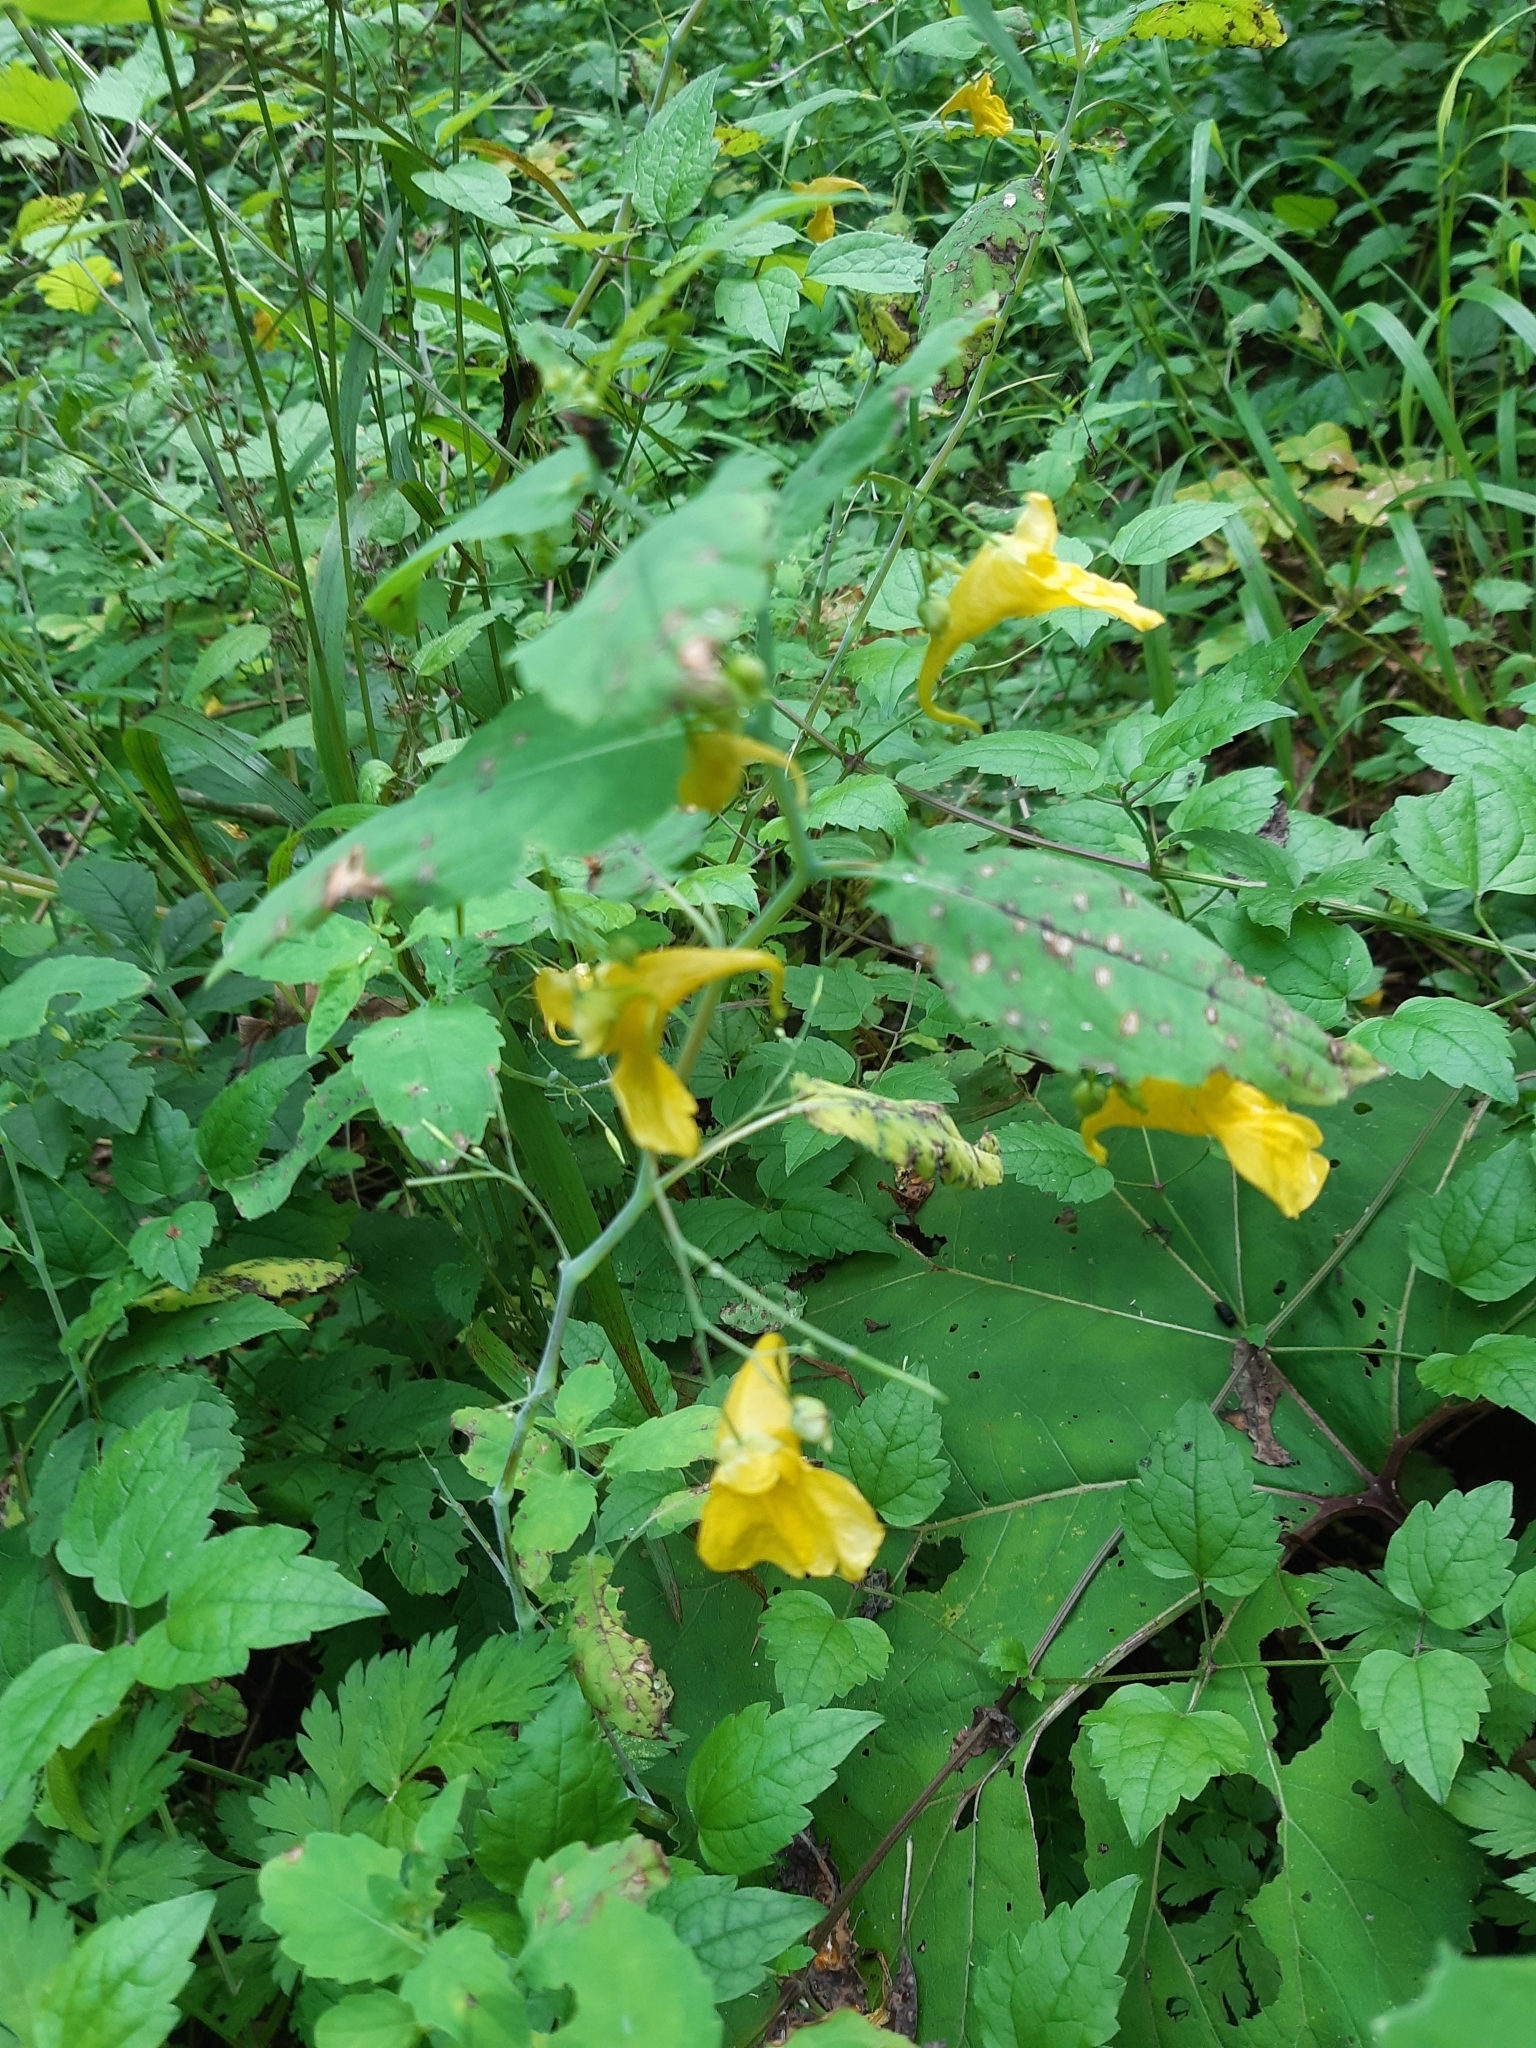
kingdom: Plantae
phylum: Tracheophyta
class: Magnoliopsida
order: Ericales
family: Balsaminaceae
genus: Impatiens
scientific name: Impatiens noli-tangere
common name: Touch-me-not balsam
